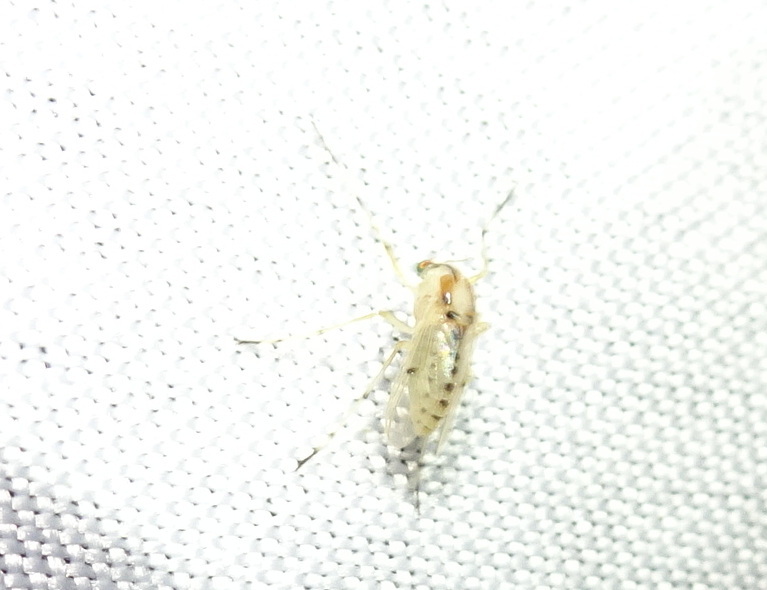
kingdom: Animalia
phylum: Arthropoda
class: Insecta
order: Diptera
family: Chironomidae
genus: Coelotanypus
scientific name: Coelotanypus concinnus
